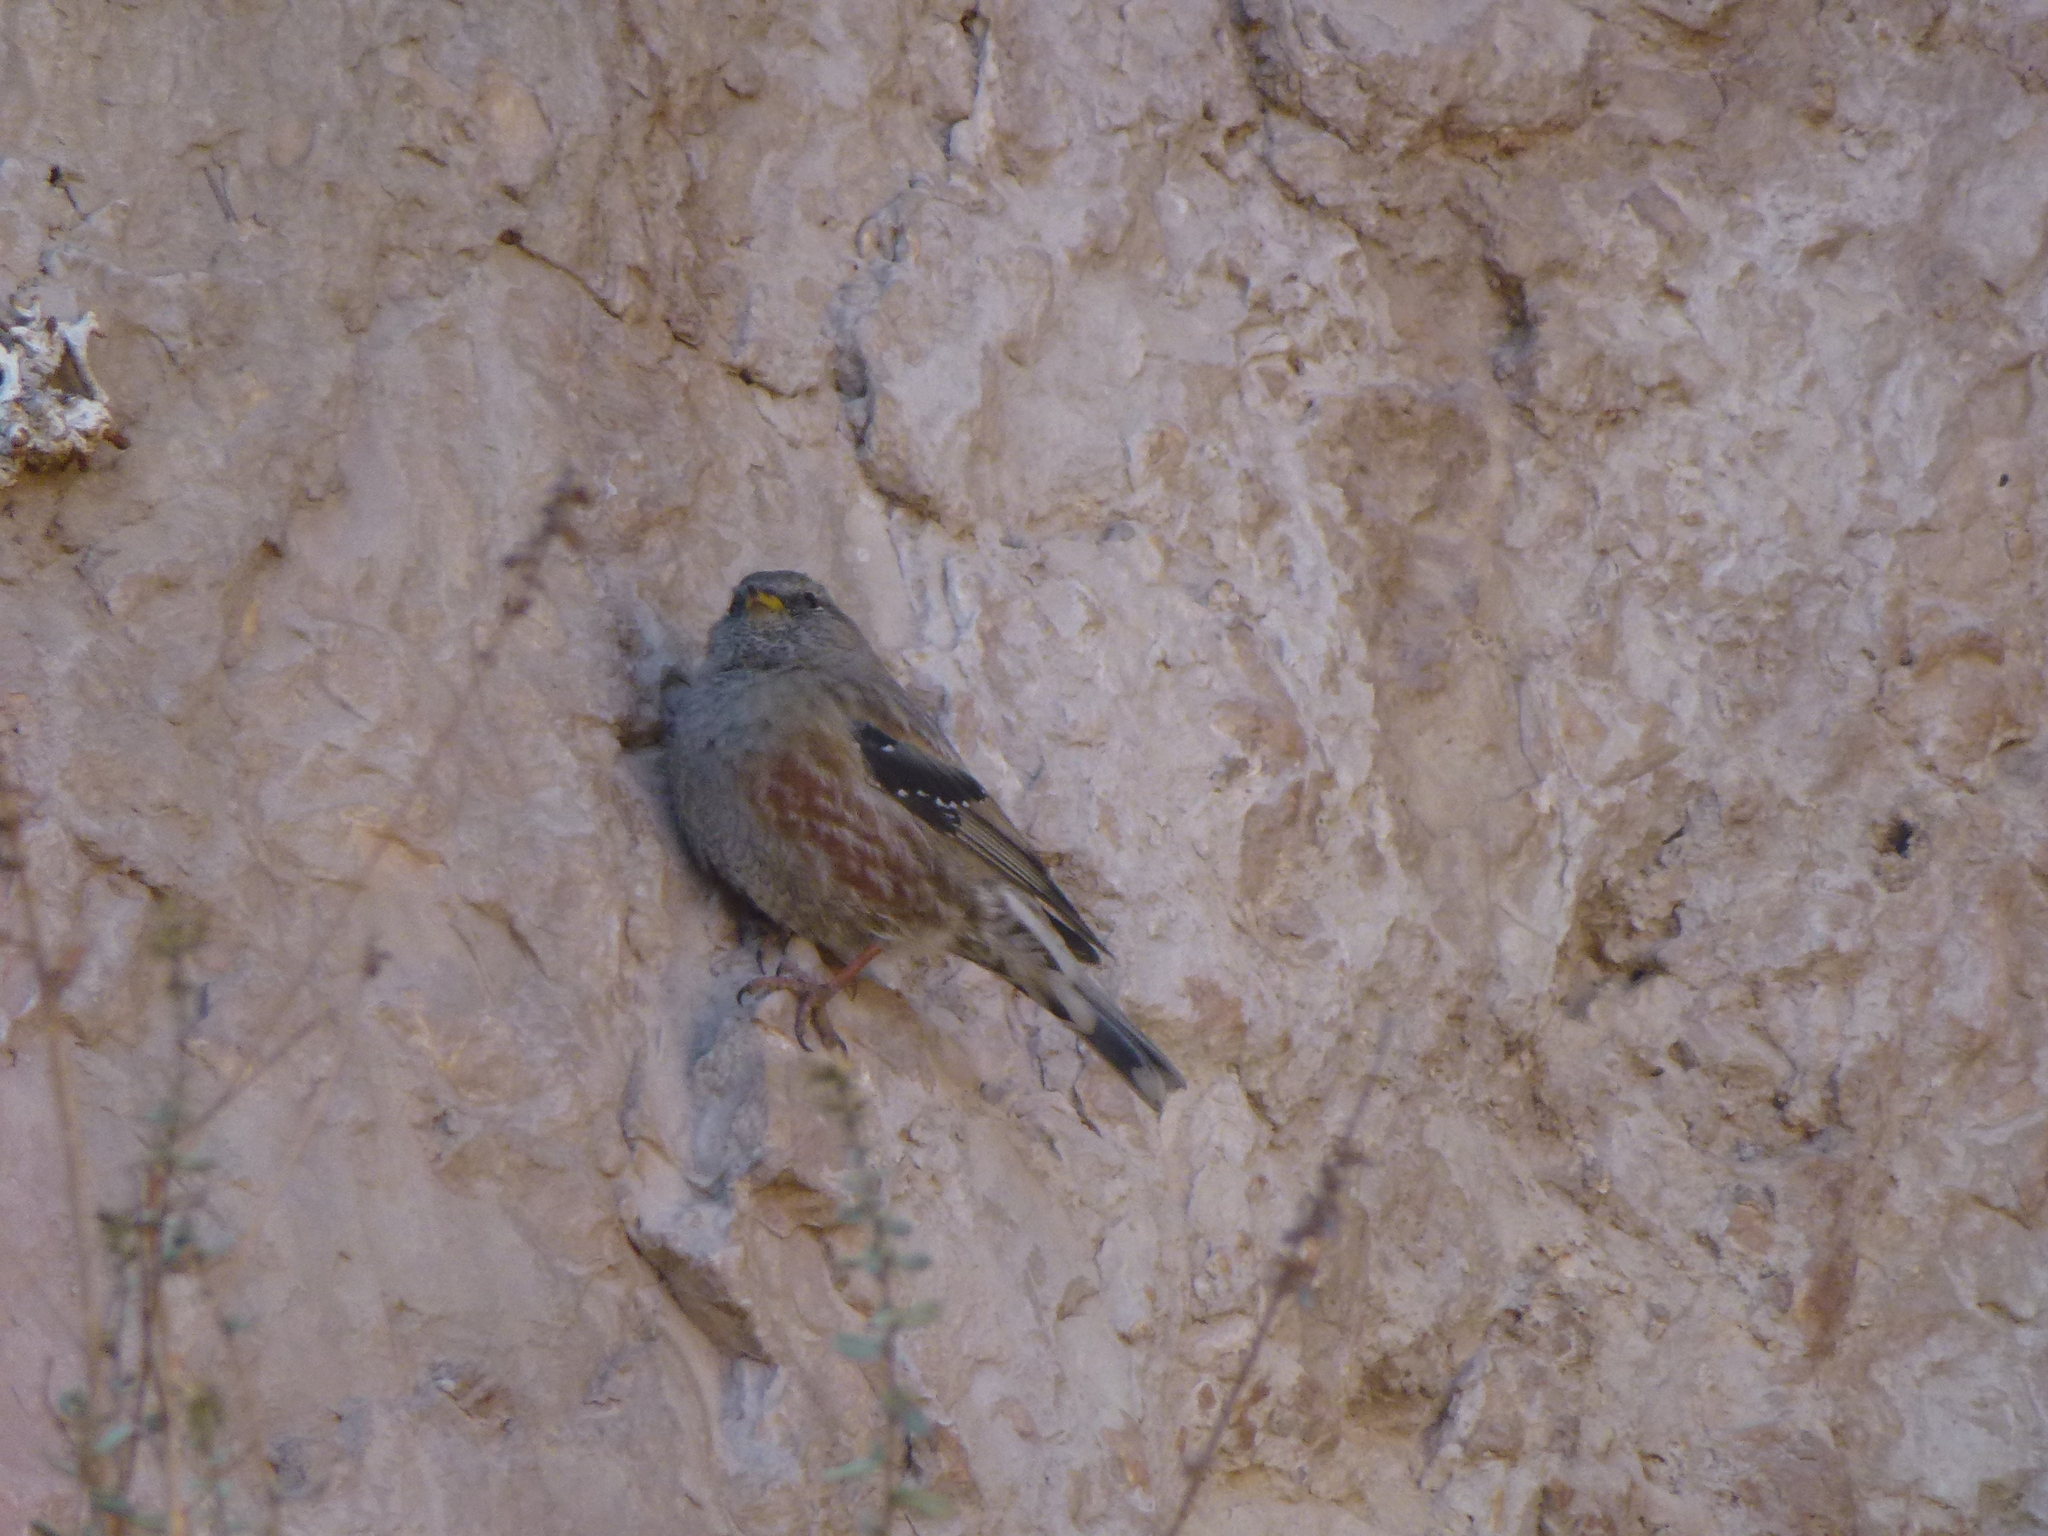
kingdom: Animalia
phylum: Chordata
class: Aves
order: Passeriformes
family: Prunellidae
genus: Prunella
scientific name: Prunella collaris
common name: Alpine accentor
